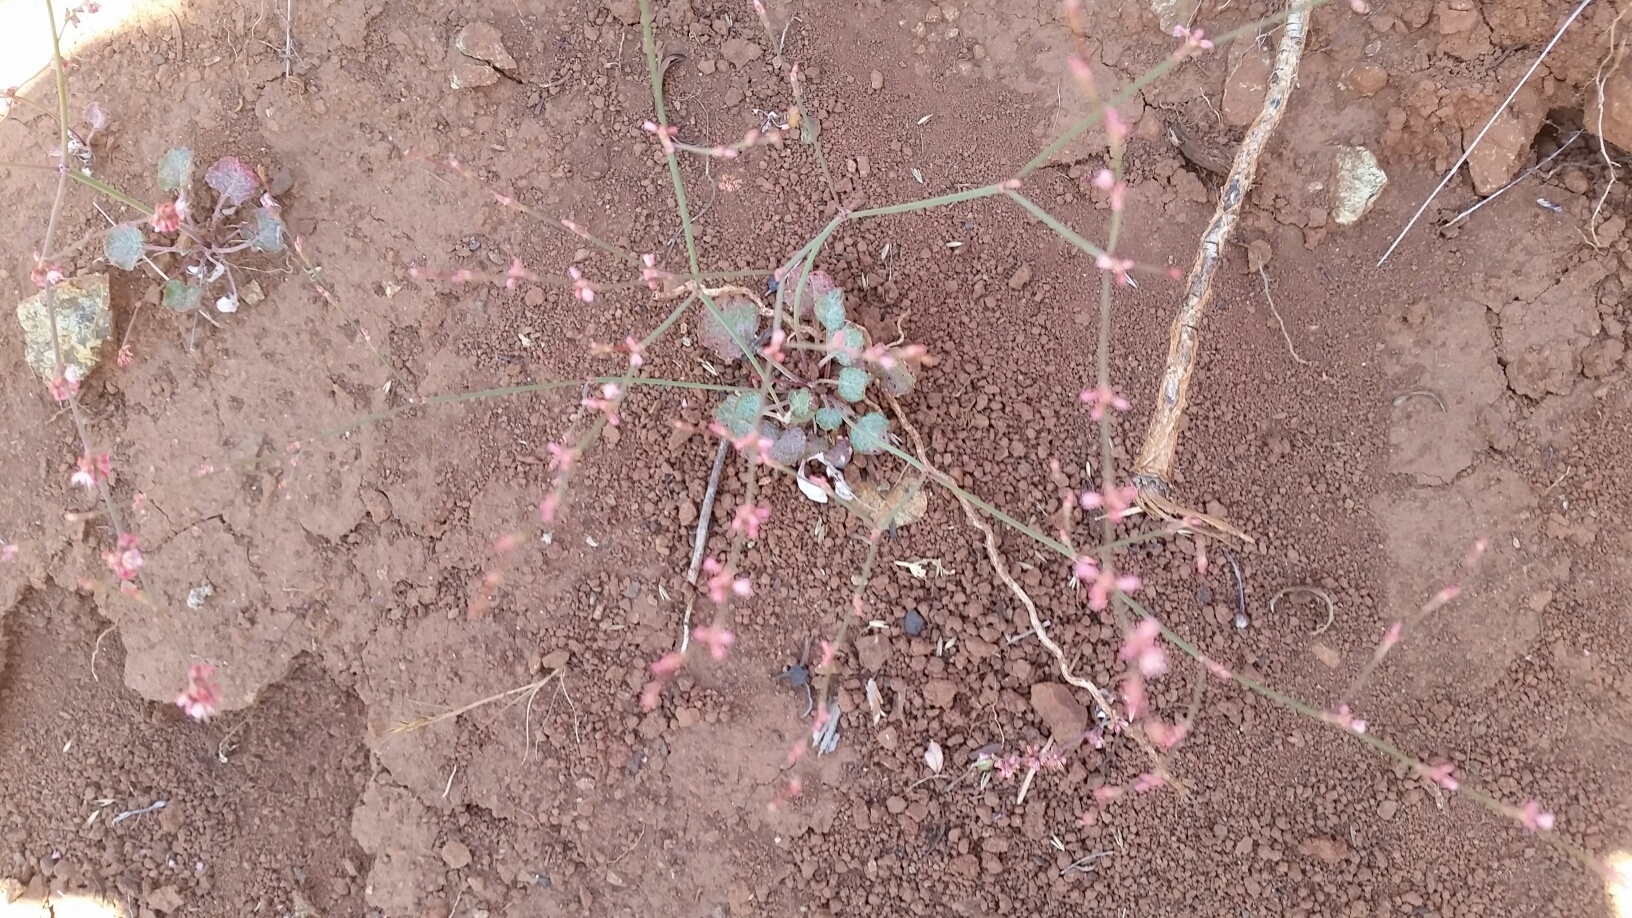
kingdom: Plantae
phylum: Tracheophyta
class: Magnoliopsida
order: Caryophyllales
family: Polygonaceae
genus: Eriogonum
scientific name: Eriogonum luteolum
